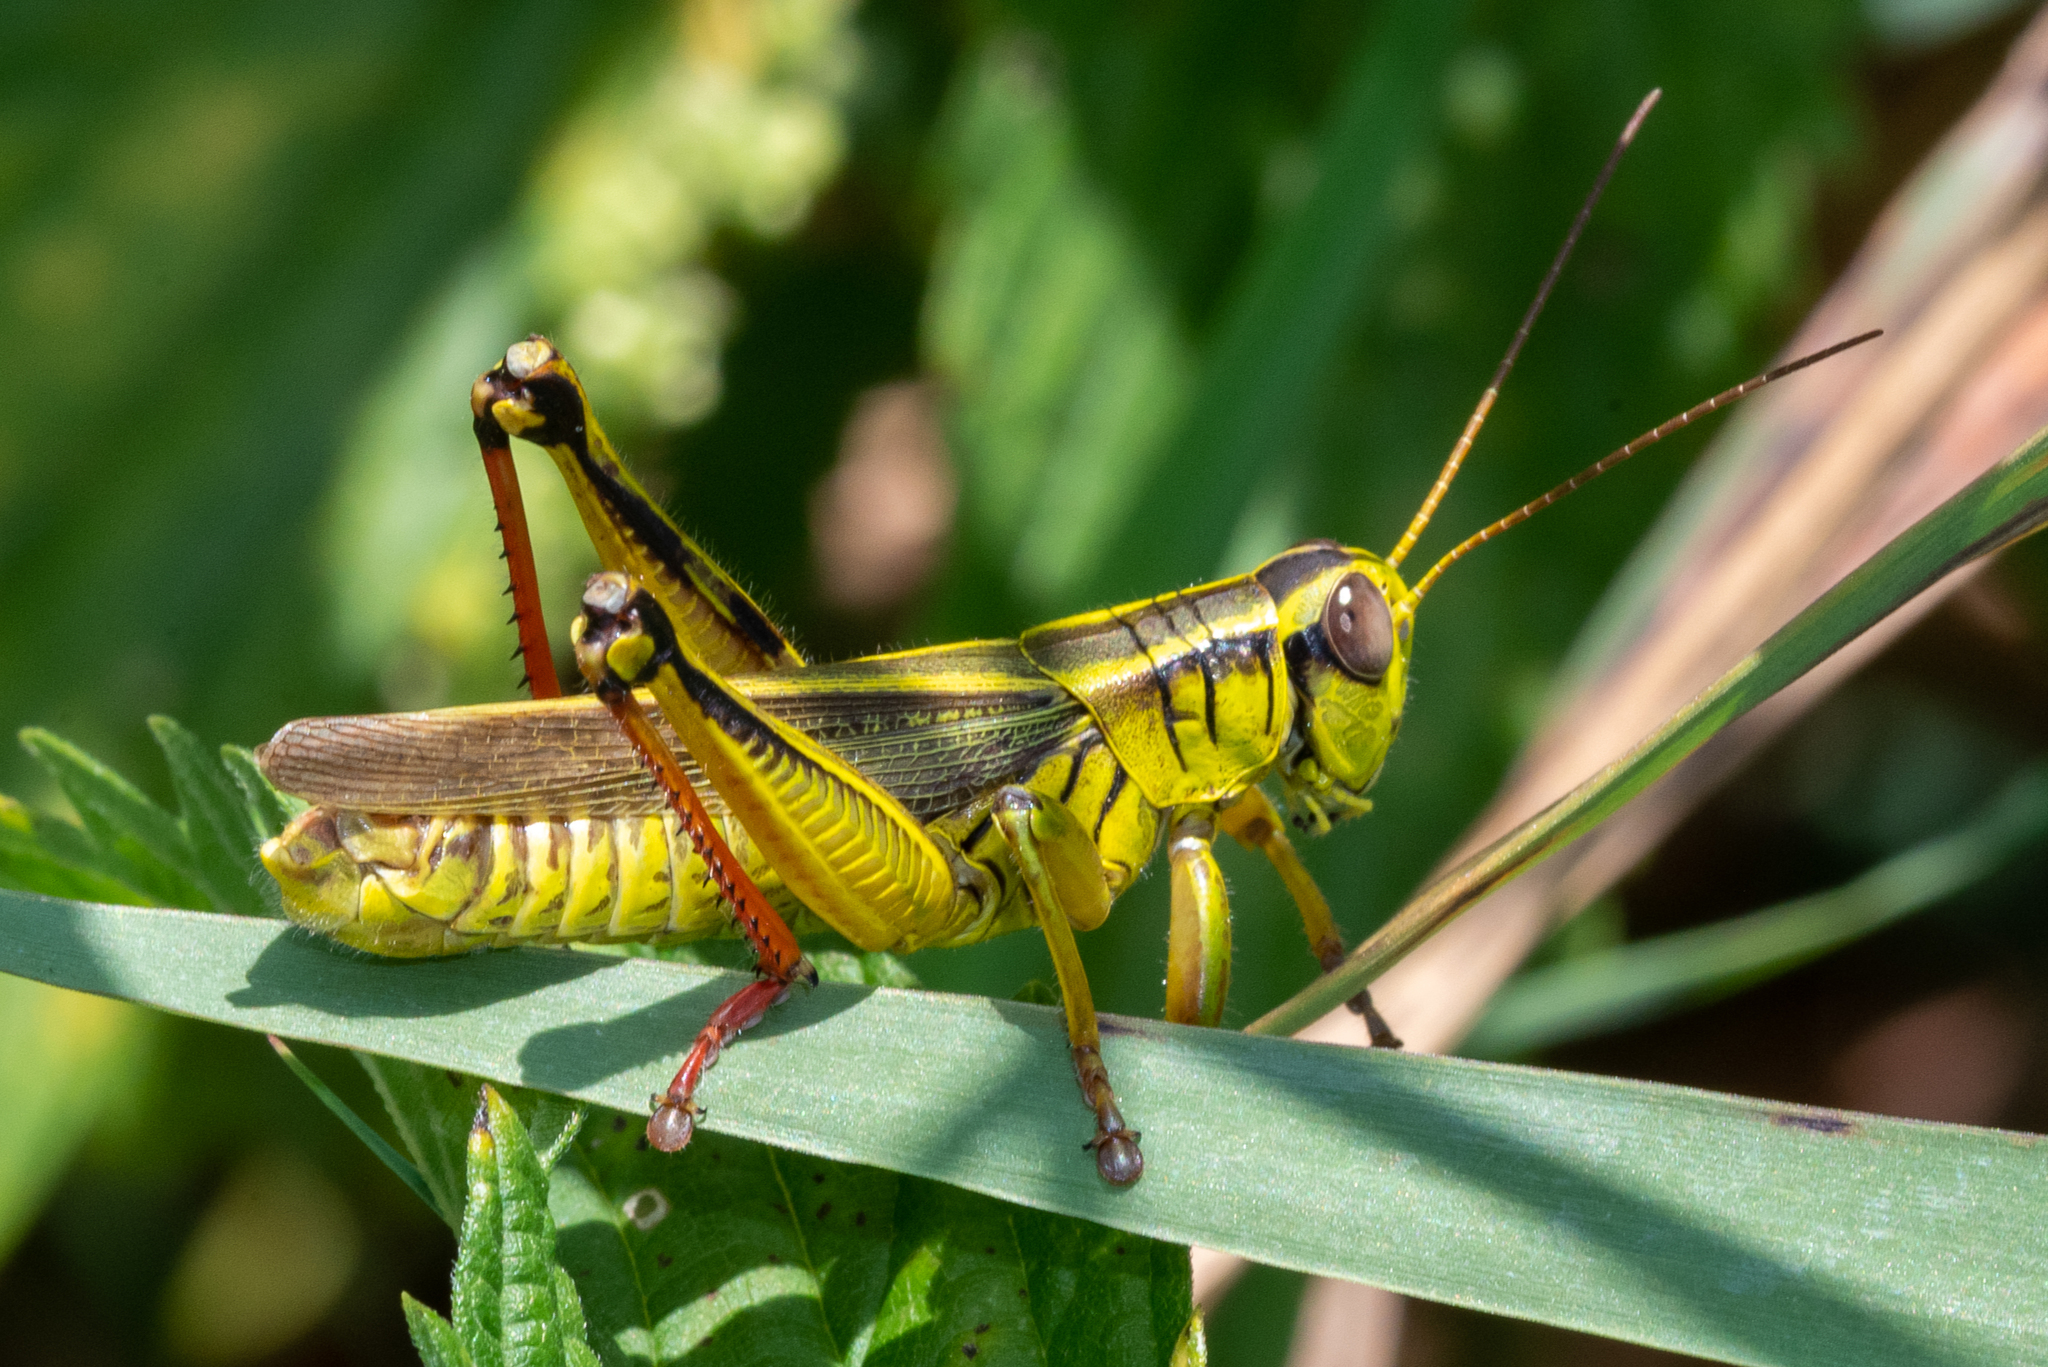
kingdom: Animalia
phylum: Arthropoda
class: Insecta
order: Orthoptera
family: Acrididae
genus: Melanoplus
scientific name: Melanoplus bivittatus
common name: Two-striped grasshopper
